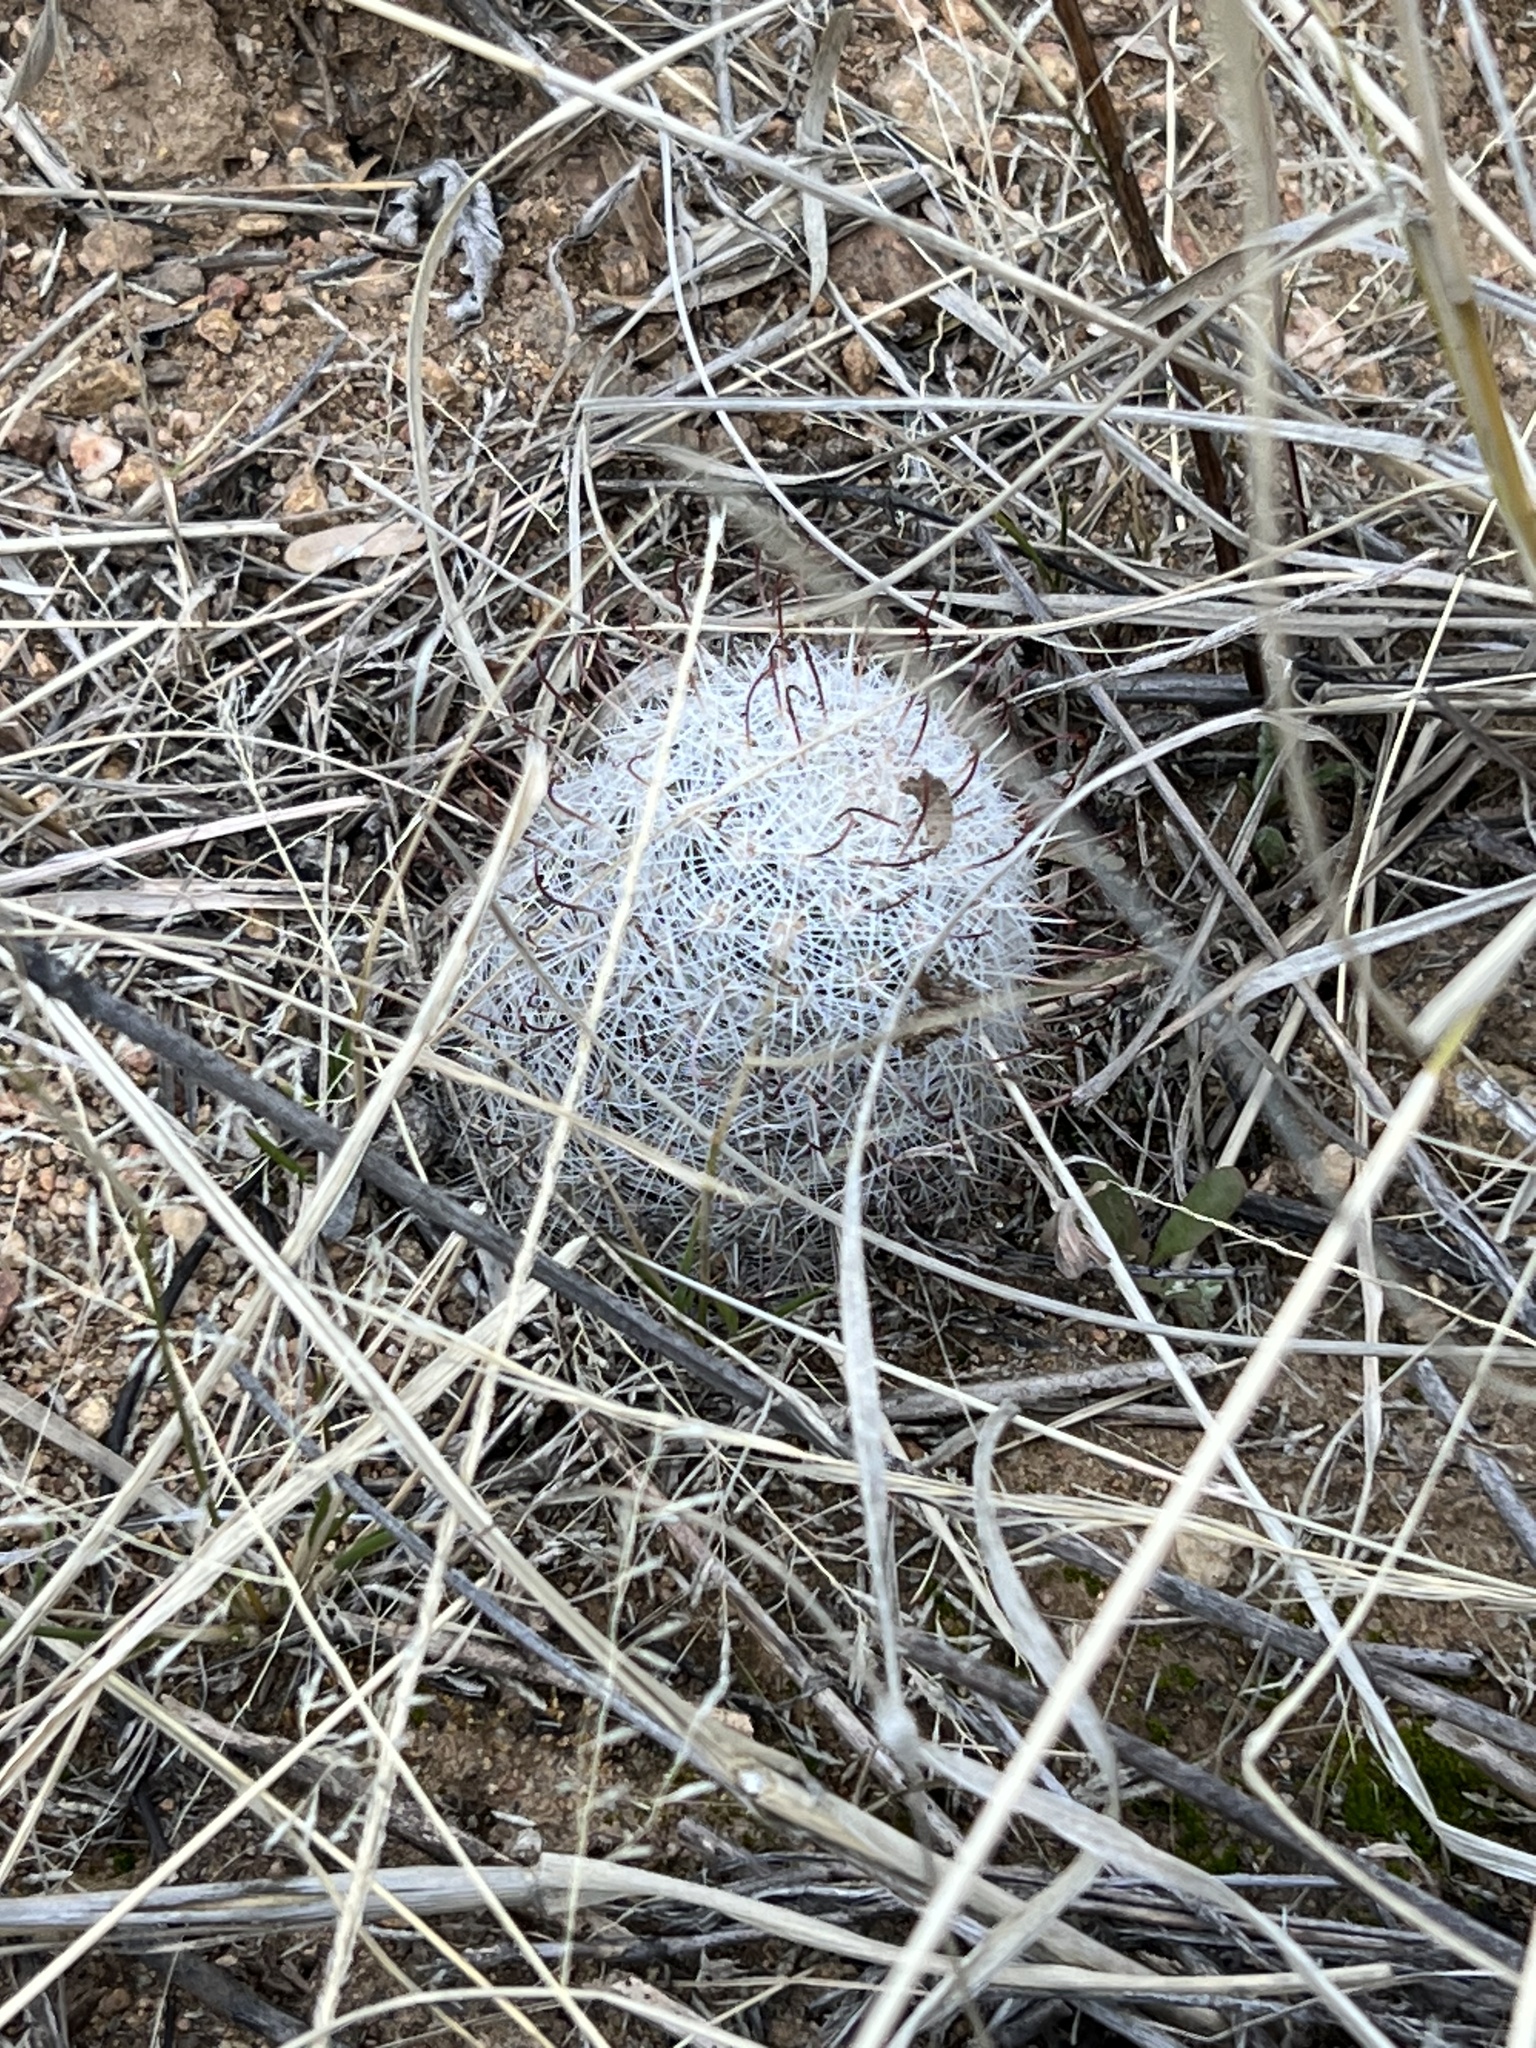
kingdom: Plantae
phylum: Tracheophyta
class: Magnoliopsida
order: Caryophyllales
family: Cactaceae
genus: Cochemiea
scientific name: Cochemiea grahamii
